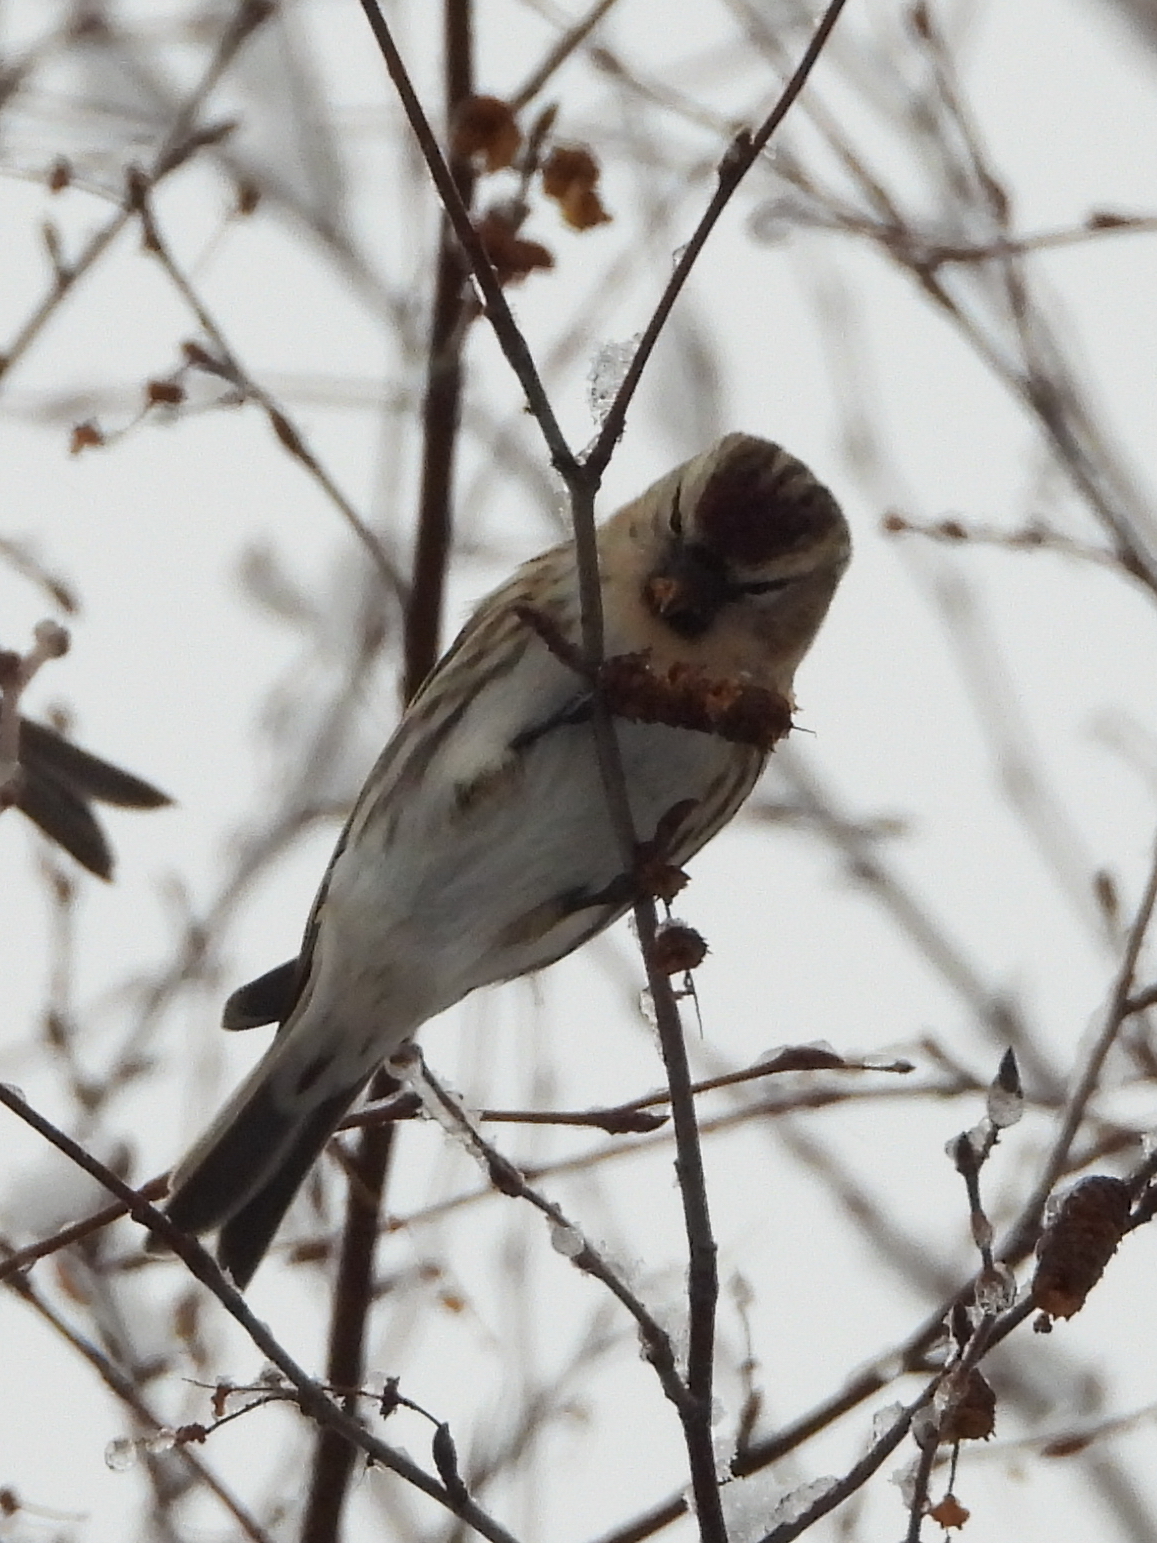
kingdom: Animalia
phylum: Chordata
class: Aves
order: Passeriformes
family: Fringillidae
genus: Acanthis
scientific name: Acanthis flammea
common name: Common redpoll
